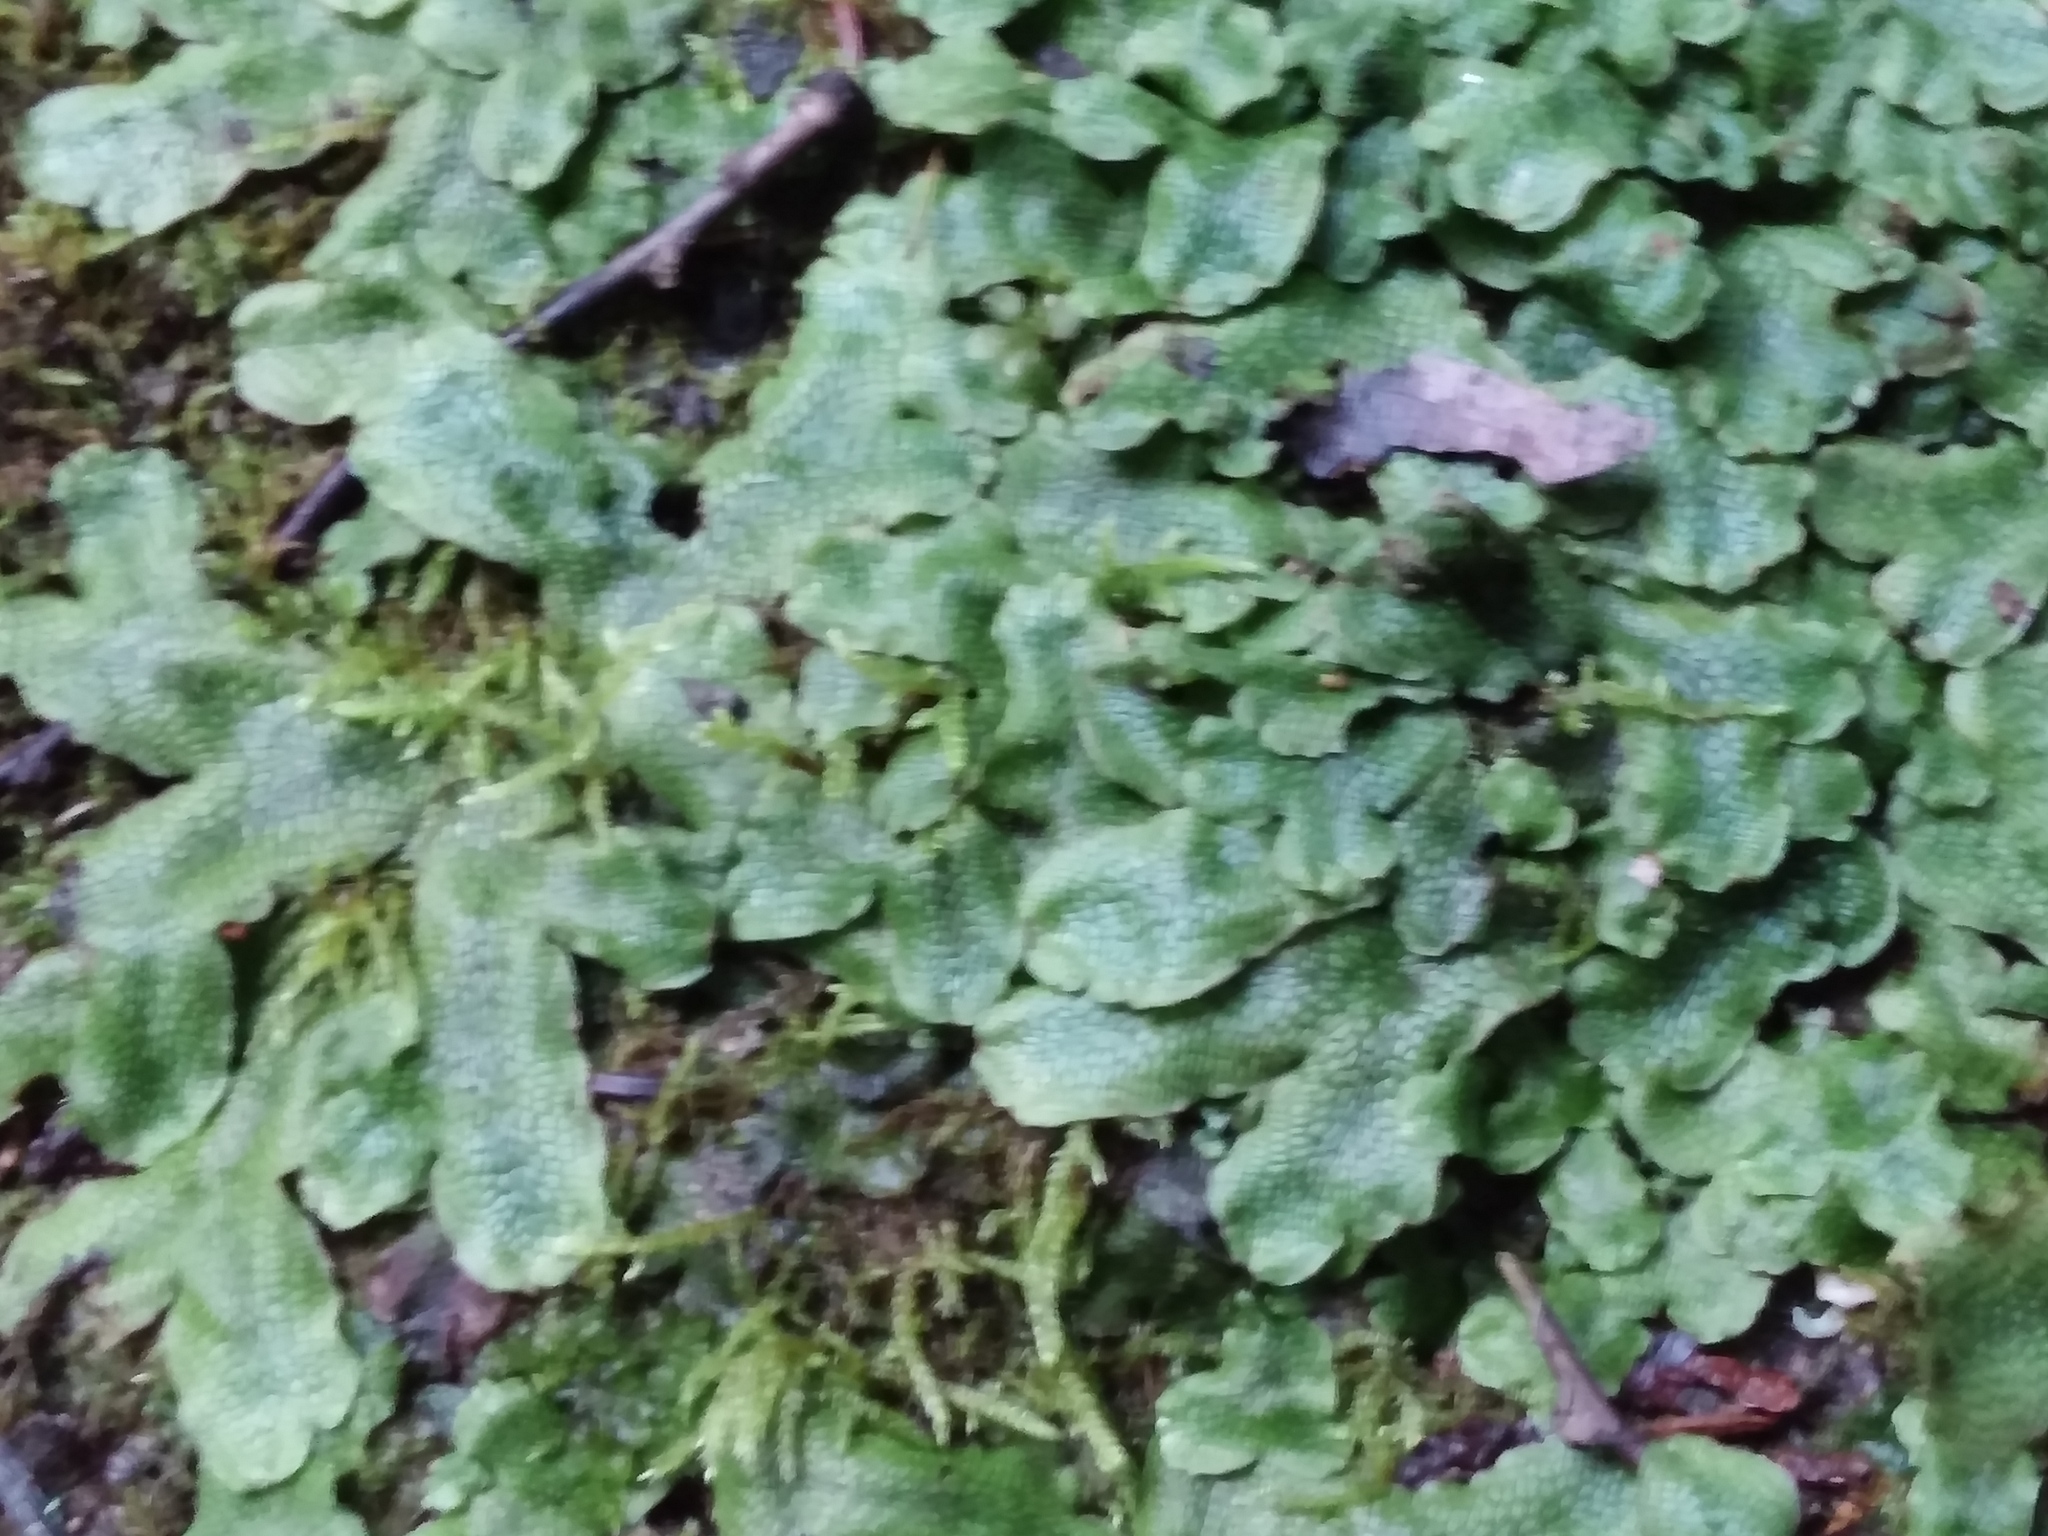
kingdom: Plantae
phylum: Marchantiophyta
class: Marchantiopsida
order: Marchantiales
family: Conocephalaceae
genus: Conocephalum
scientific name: Conocephalum salebrosum
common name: Cat-tongue liverwort
